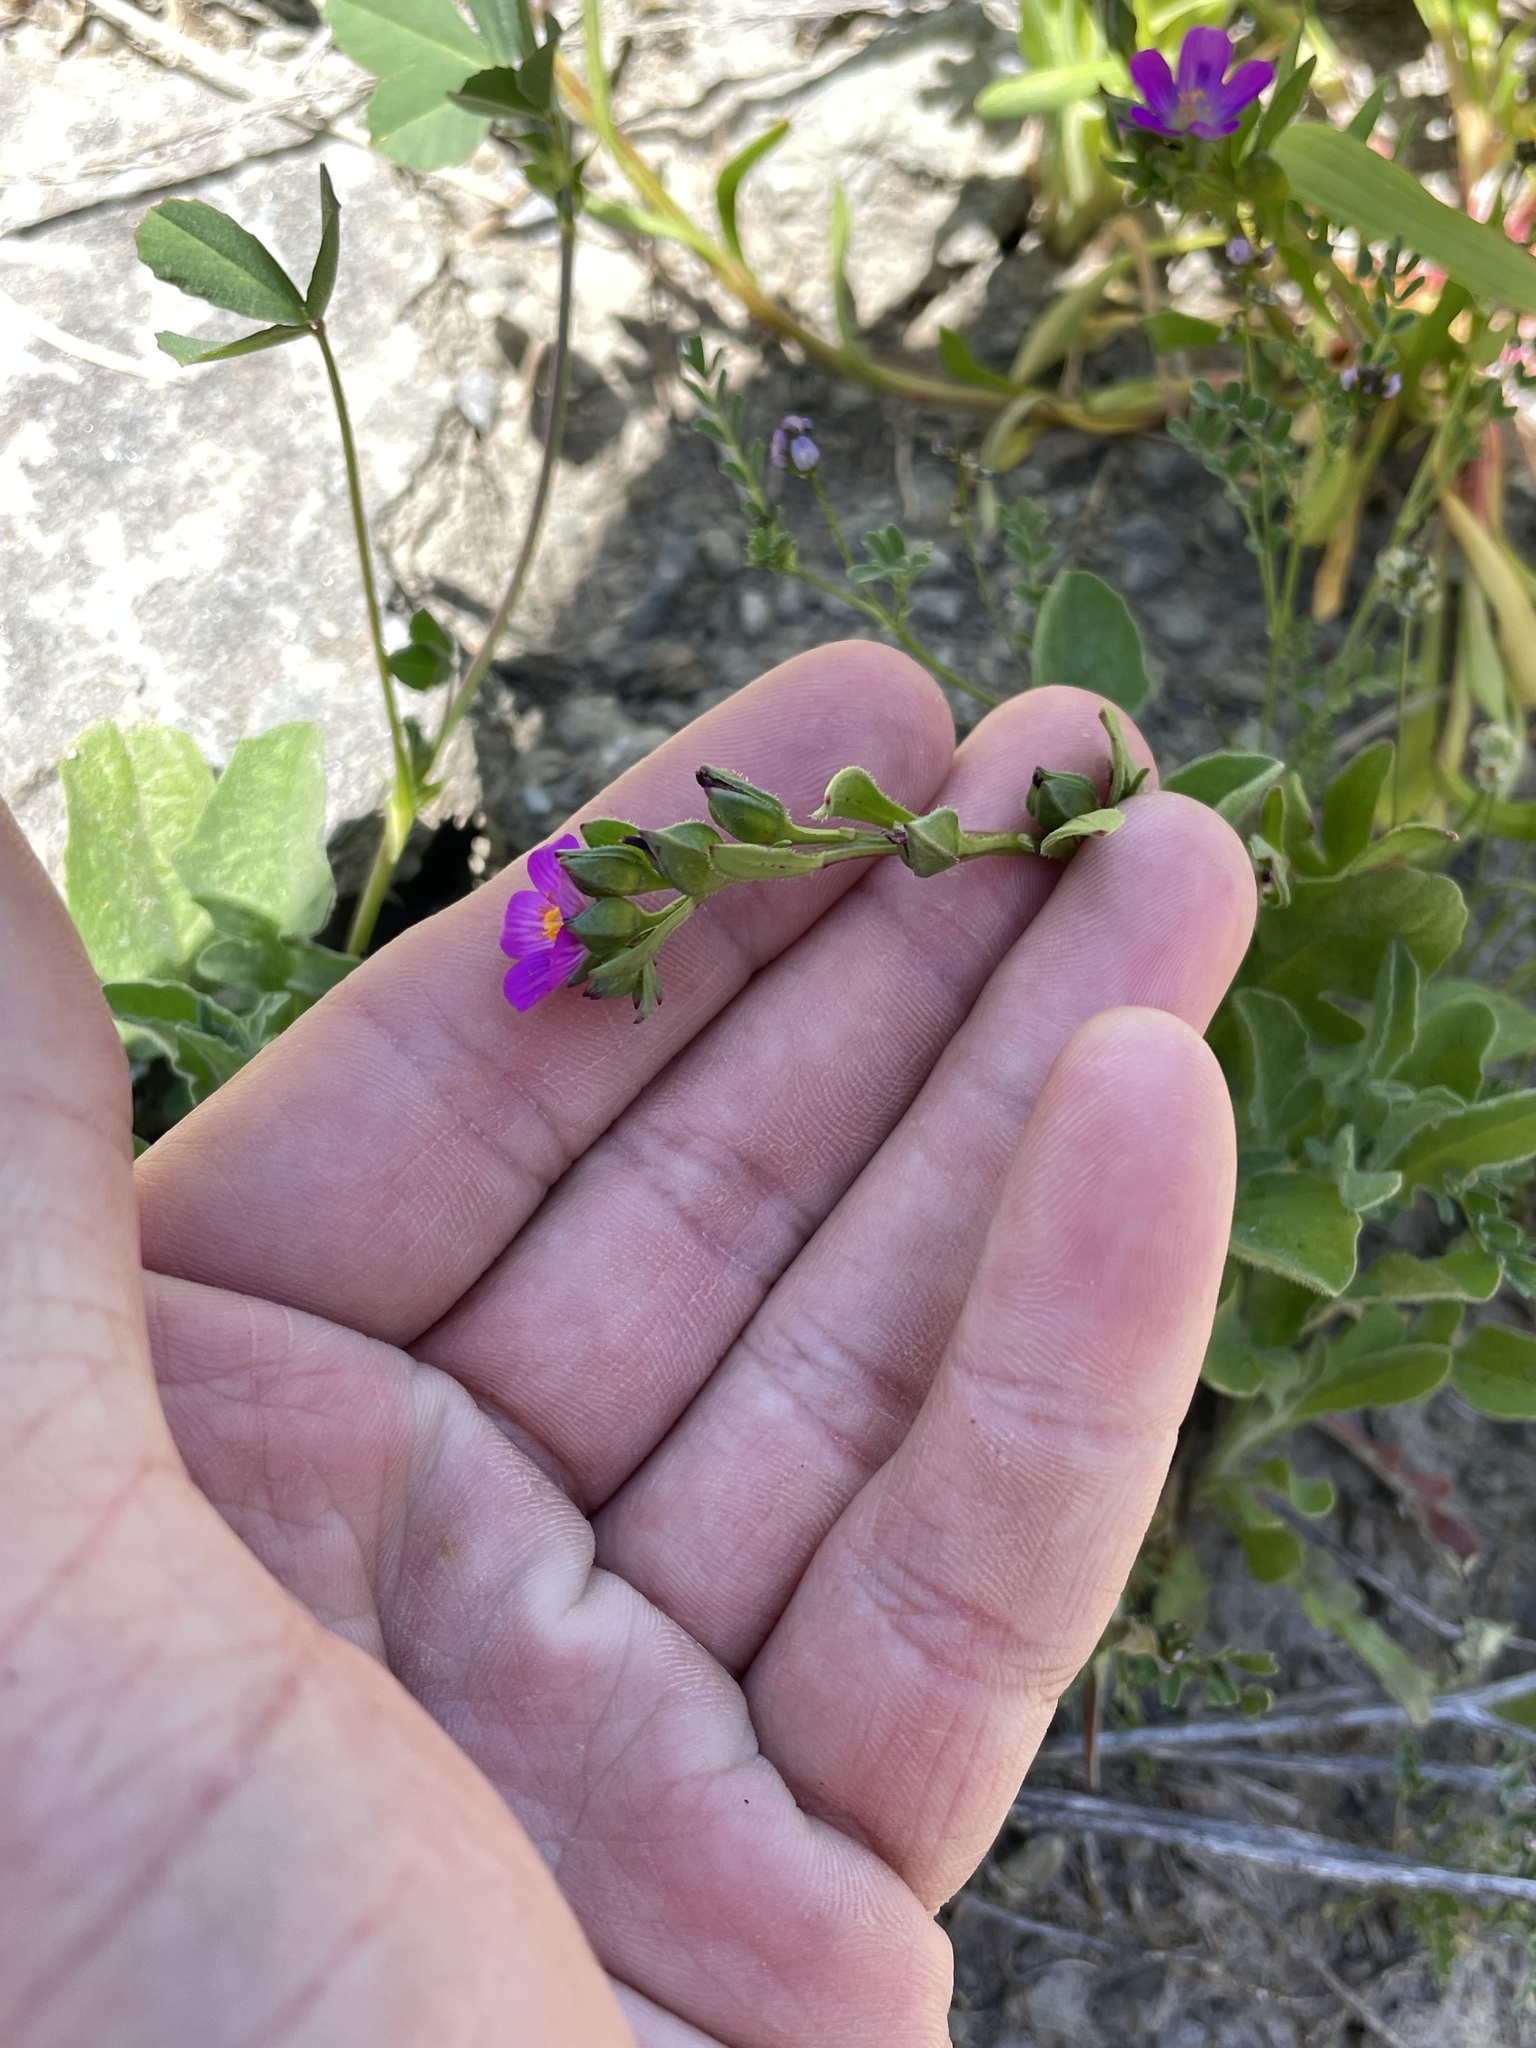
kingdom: Plantae
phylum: Tracheophyta
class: Magnoliopsida
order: Caryophyllales
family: Montiaceae
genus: Calandrinia
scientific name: Calandrinia menziesii
